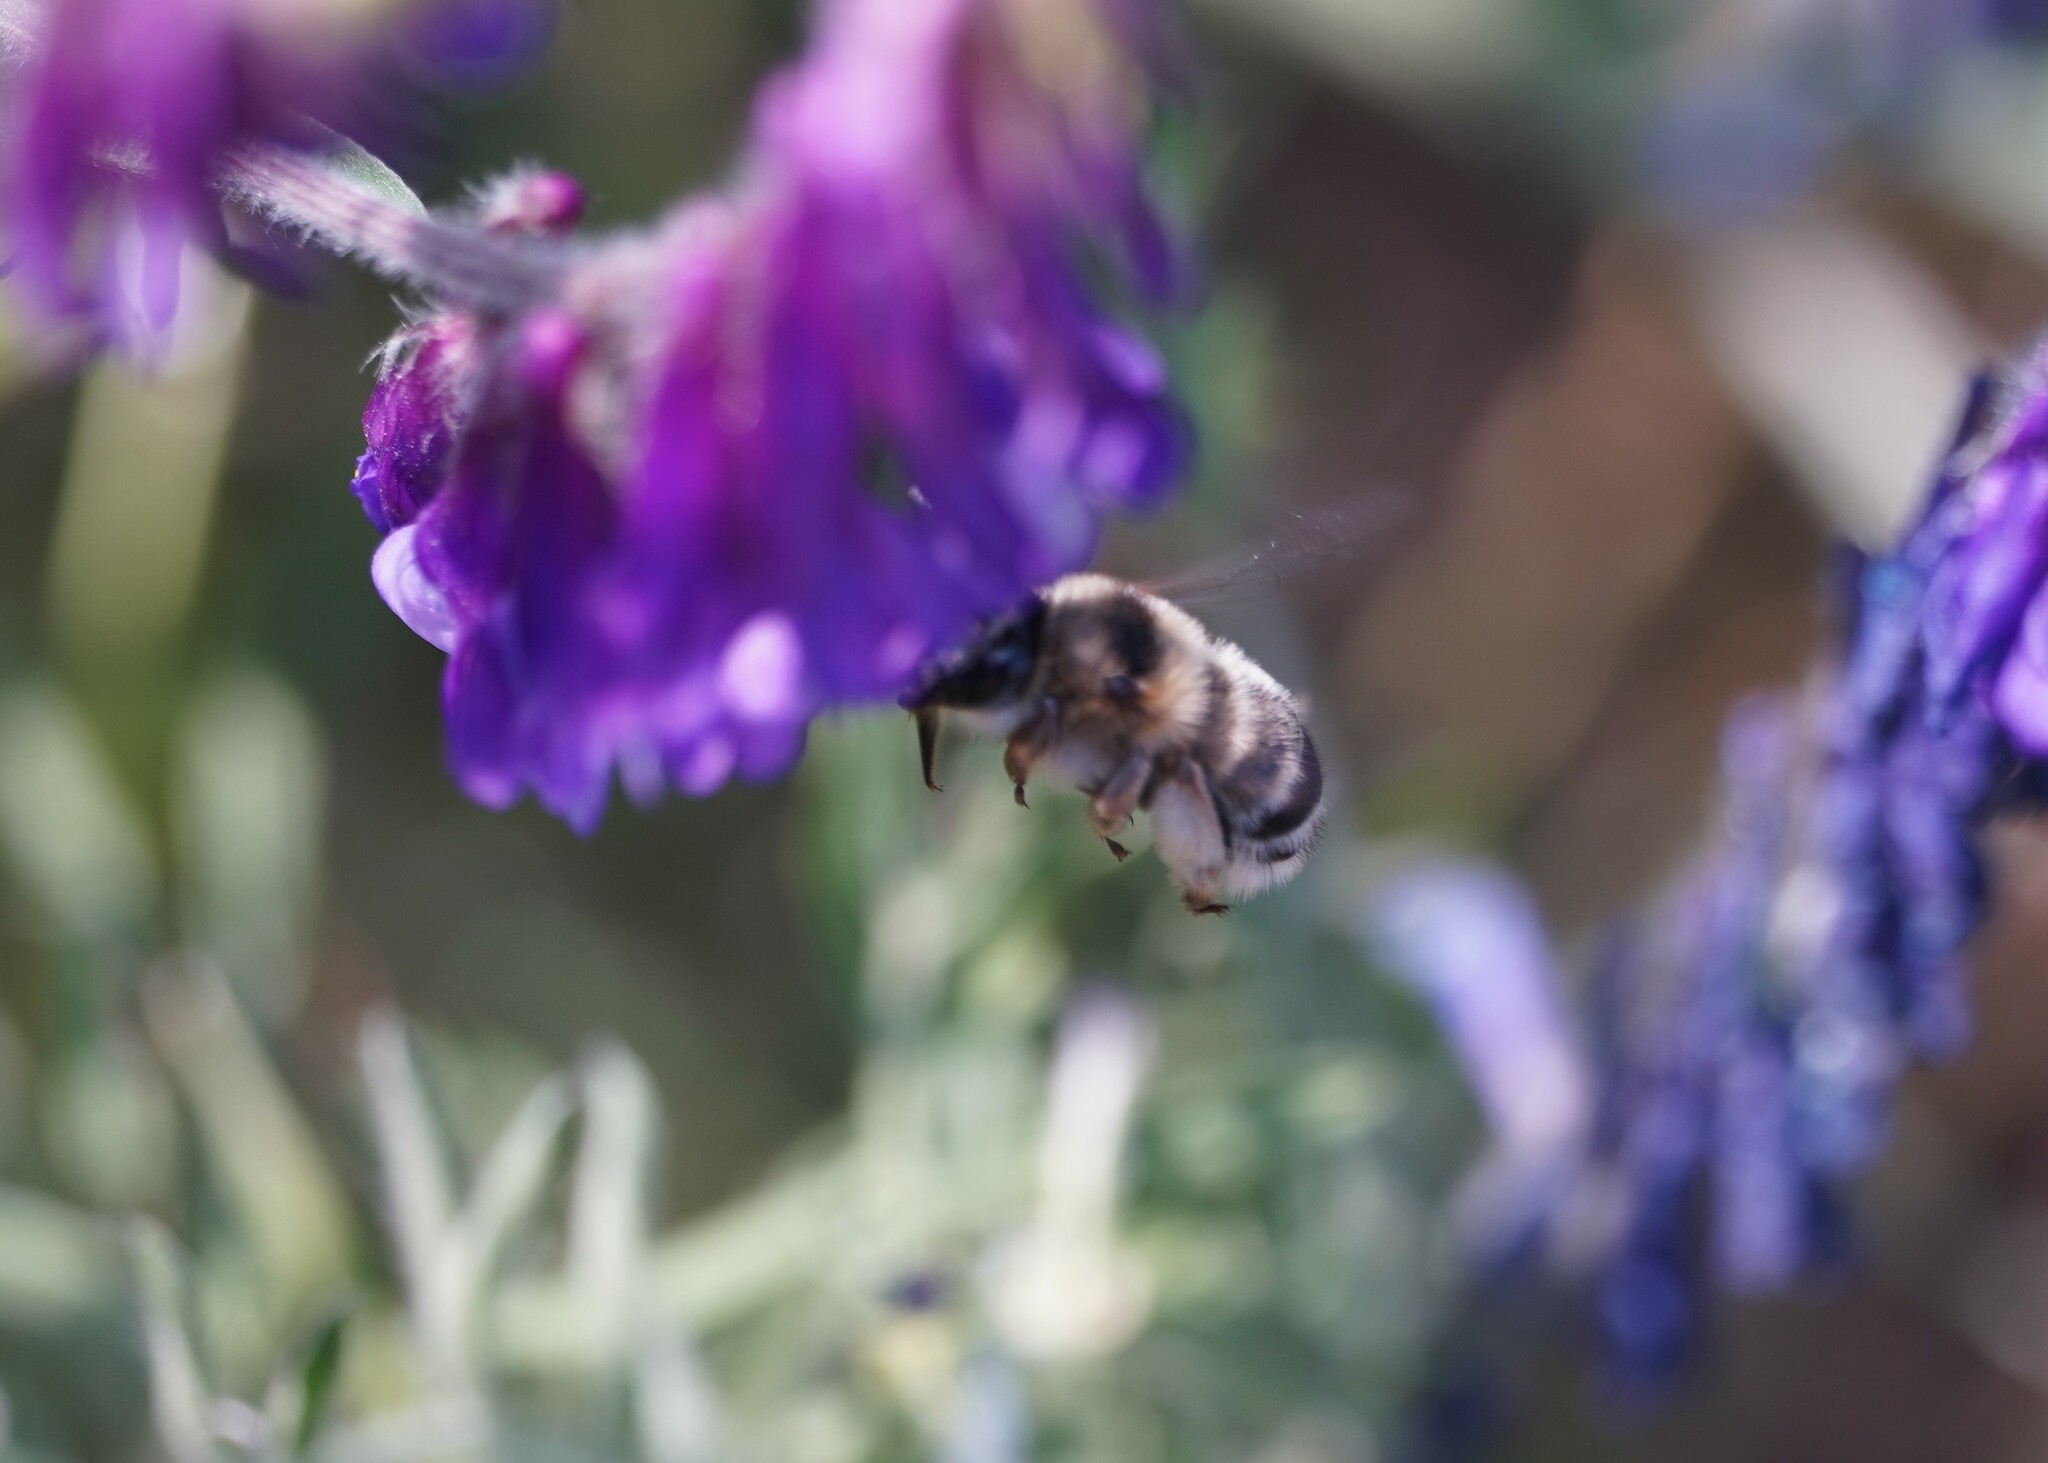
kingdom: Animalia
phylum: Arthropoda
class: Insecta
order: Hymenoptera
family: Apidae
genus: Anthophora
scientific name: Anthophora aestivalis
